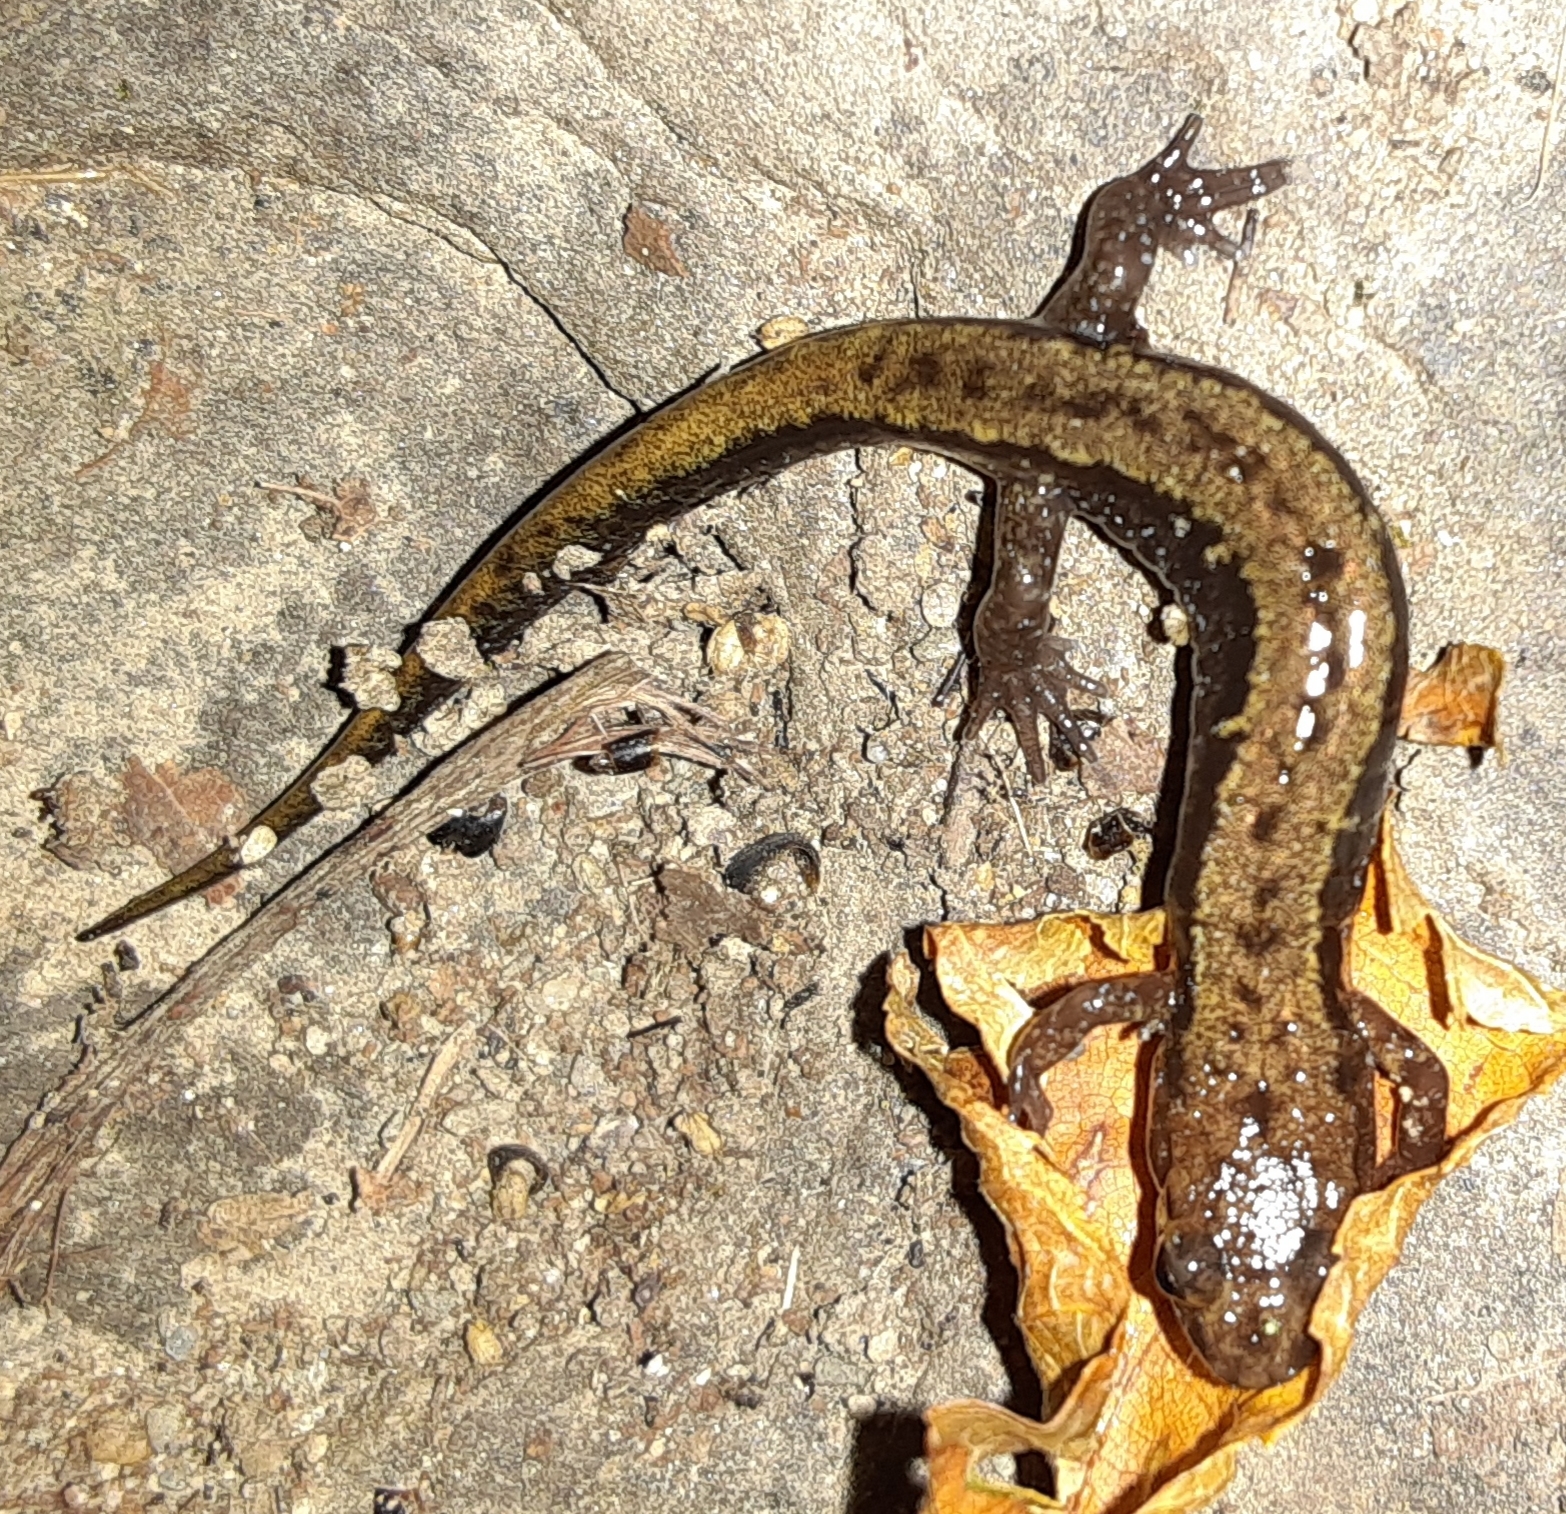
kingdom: Animalia
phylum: Chordata
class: Amphibia
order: Caudata
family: Plethodontidae
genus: Desmognathus
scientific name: Desmognathus ochrophaeus
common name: Allegheny mountain dusky salamander
